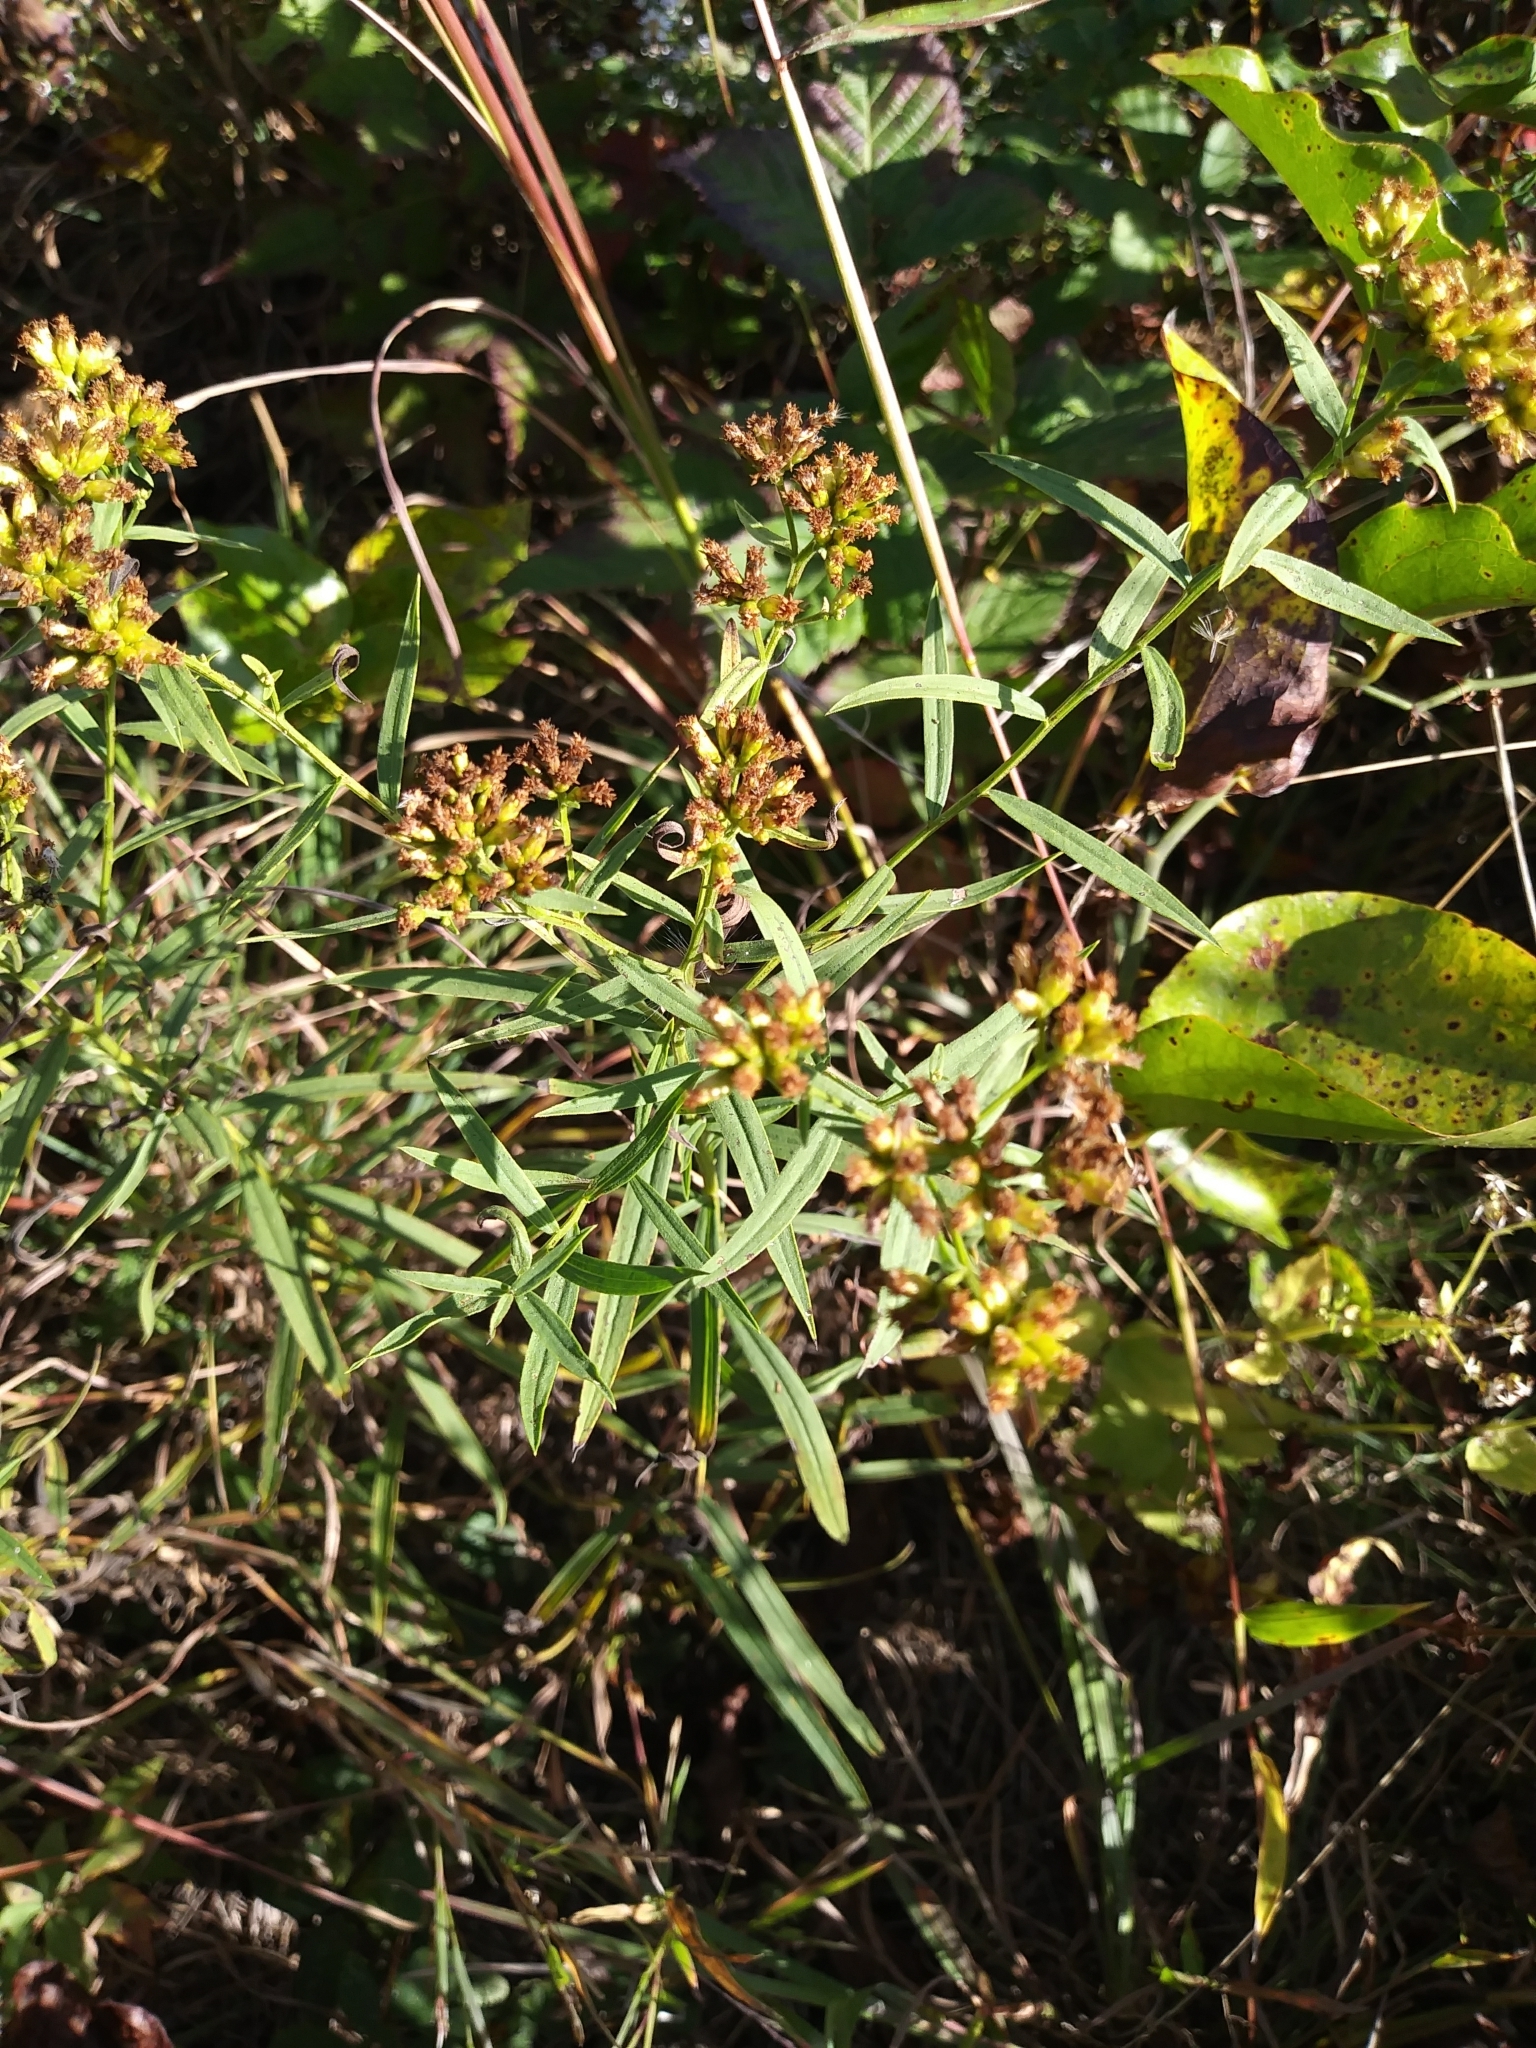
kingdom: Plantae
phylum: Tracheophyta
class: Magnoliopsida
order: Asterales
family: Asteraceae
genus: Euthamia
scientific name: Euthamia graminifolia
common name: Common goldentop
